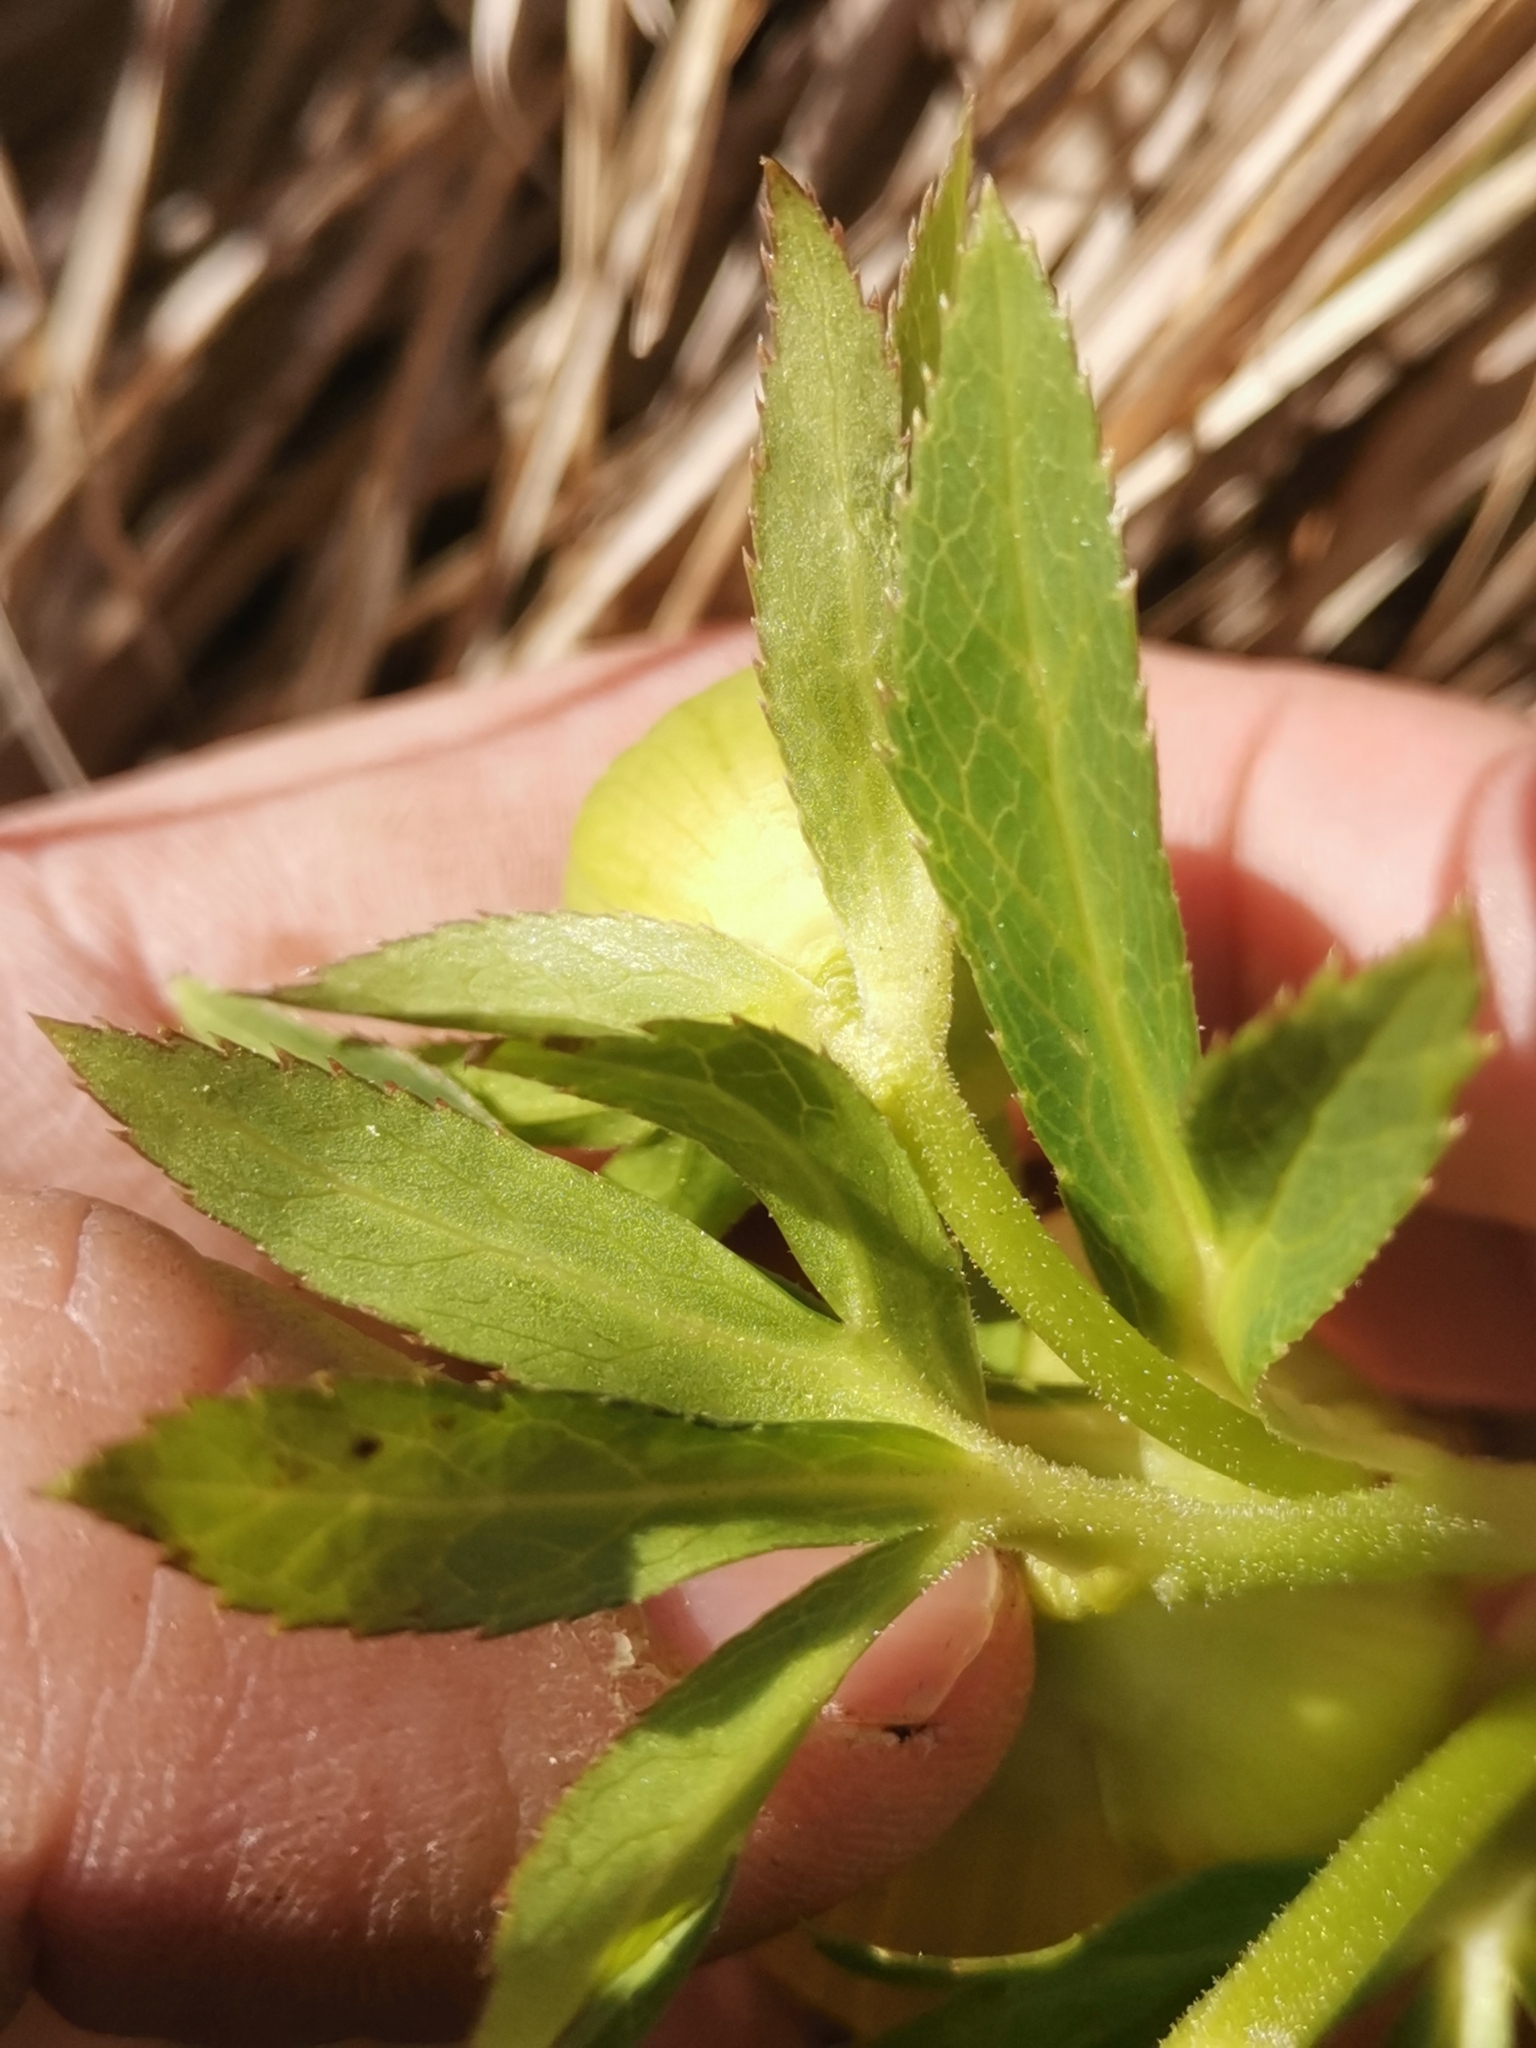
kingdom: Plantae
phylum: Tracheophyta
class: Magnoliopsida
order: Ranunculales
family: Ranunculaceae
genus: Helleborus
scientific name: Helleborus bocconei
